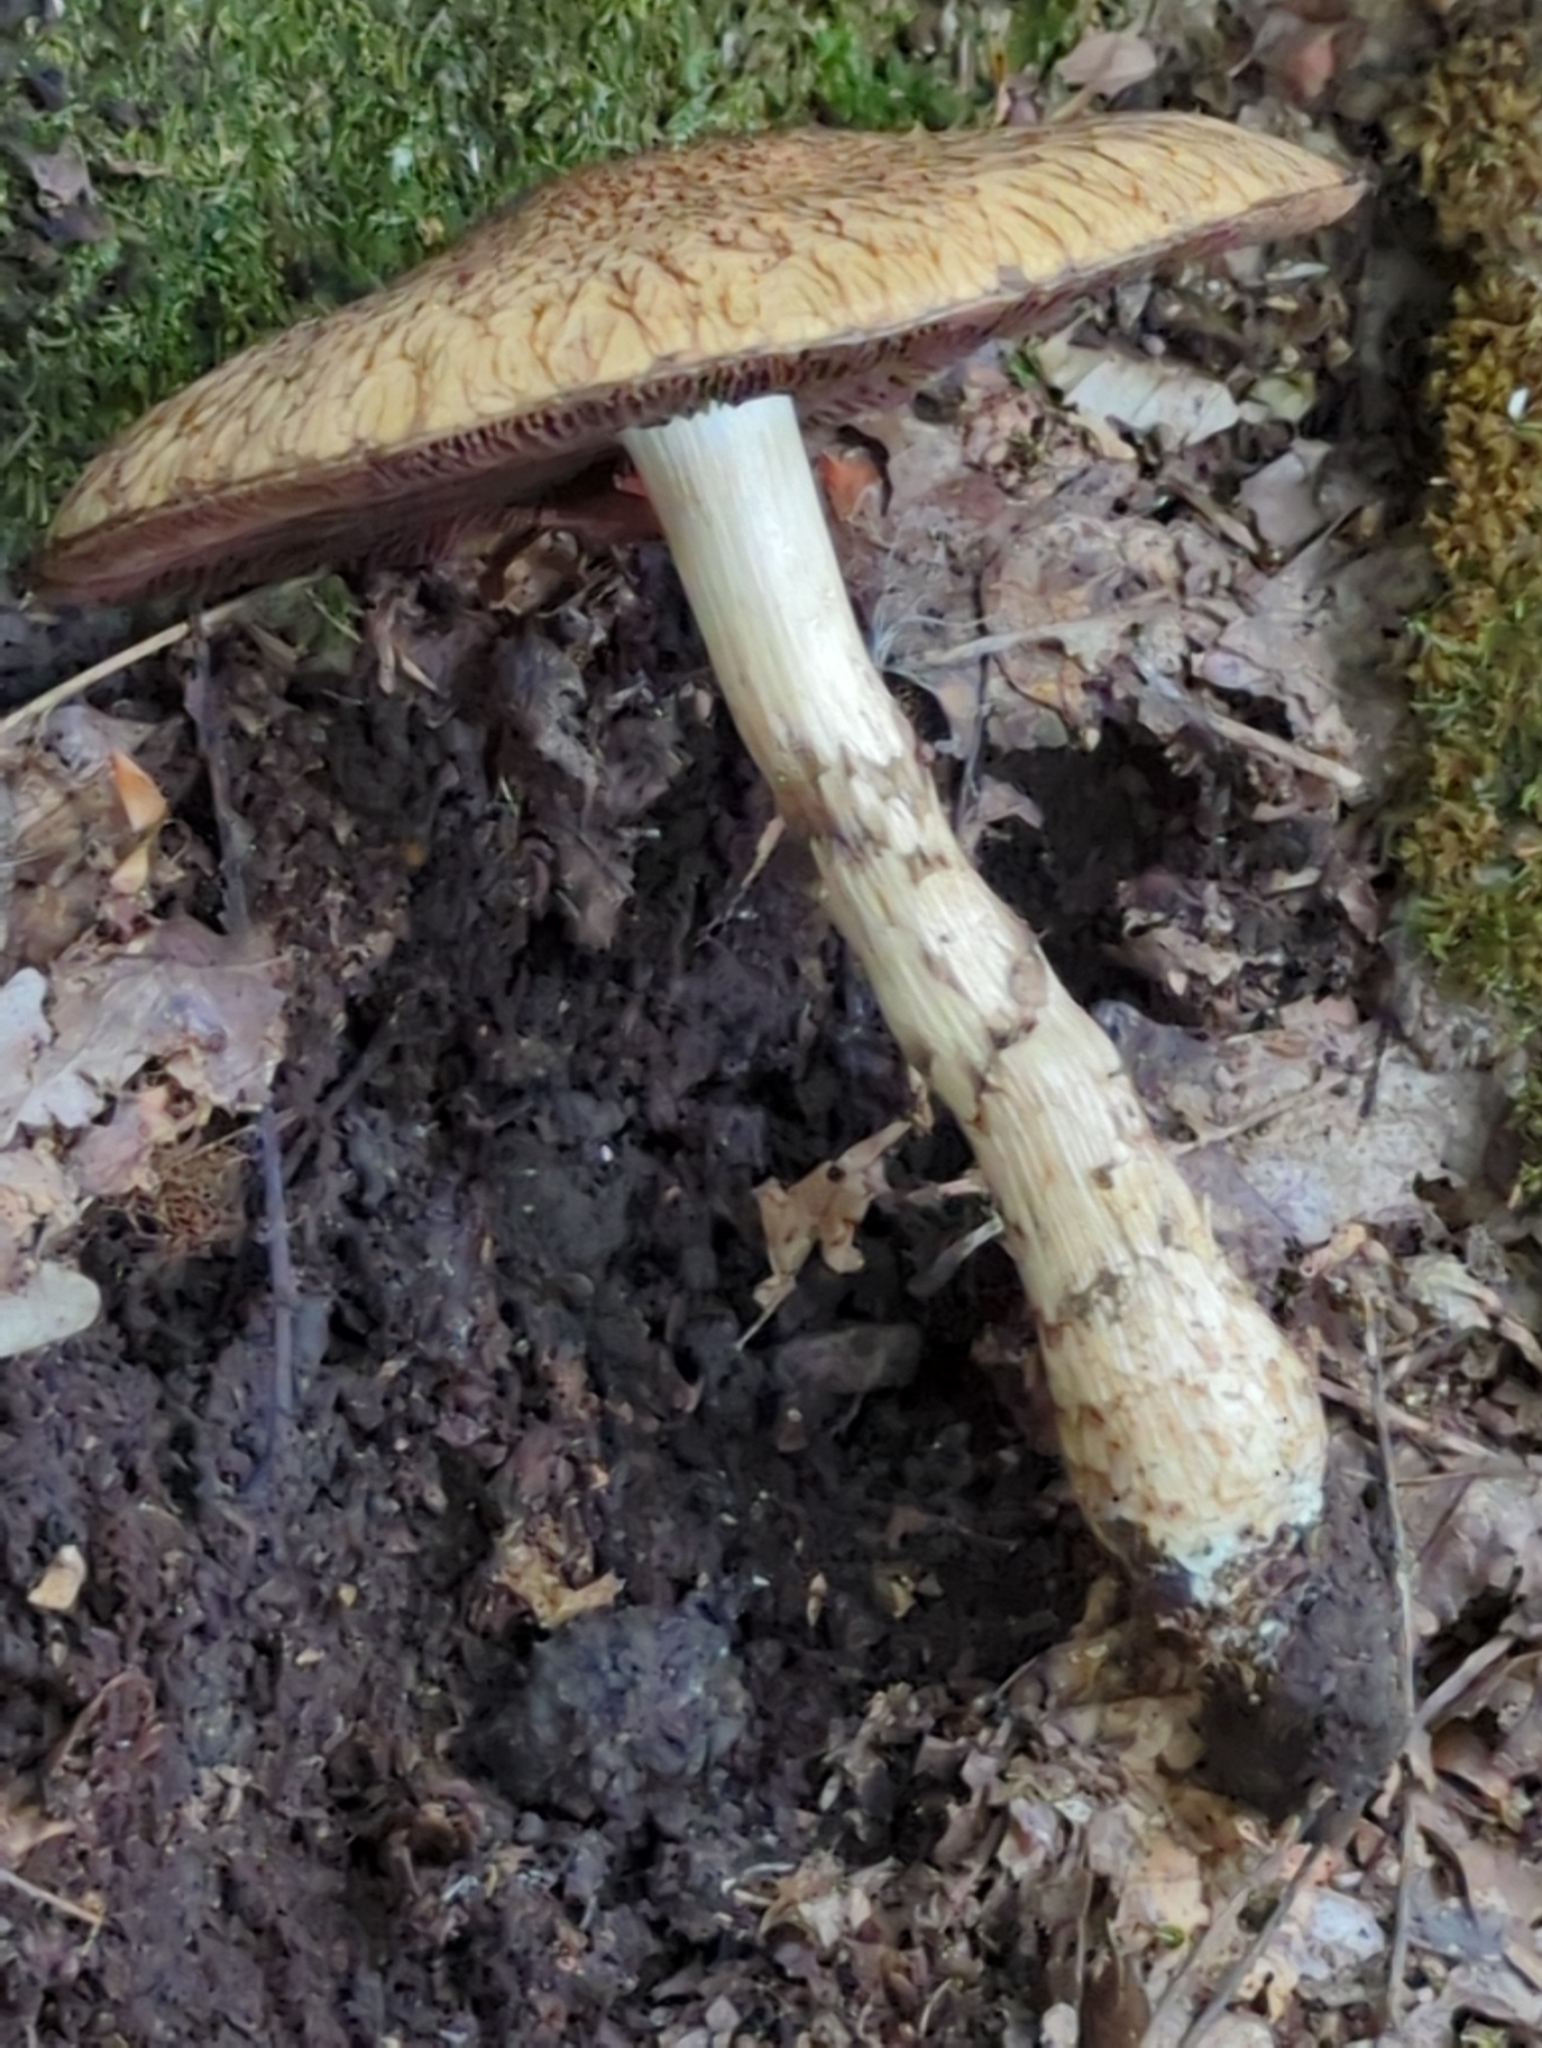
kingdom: Fungi
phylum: Basidiomycota
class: Agaricomycetes
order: Agaricales
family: Psathyrellaceae
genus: Lacrymaria
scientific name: Lacrymaria echiniceps
